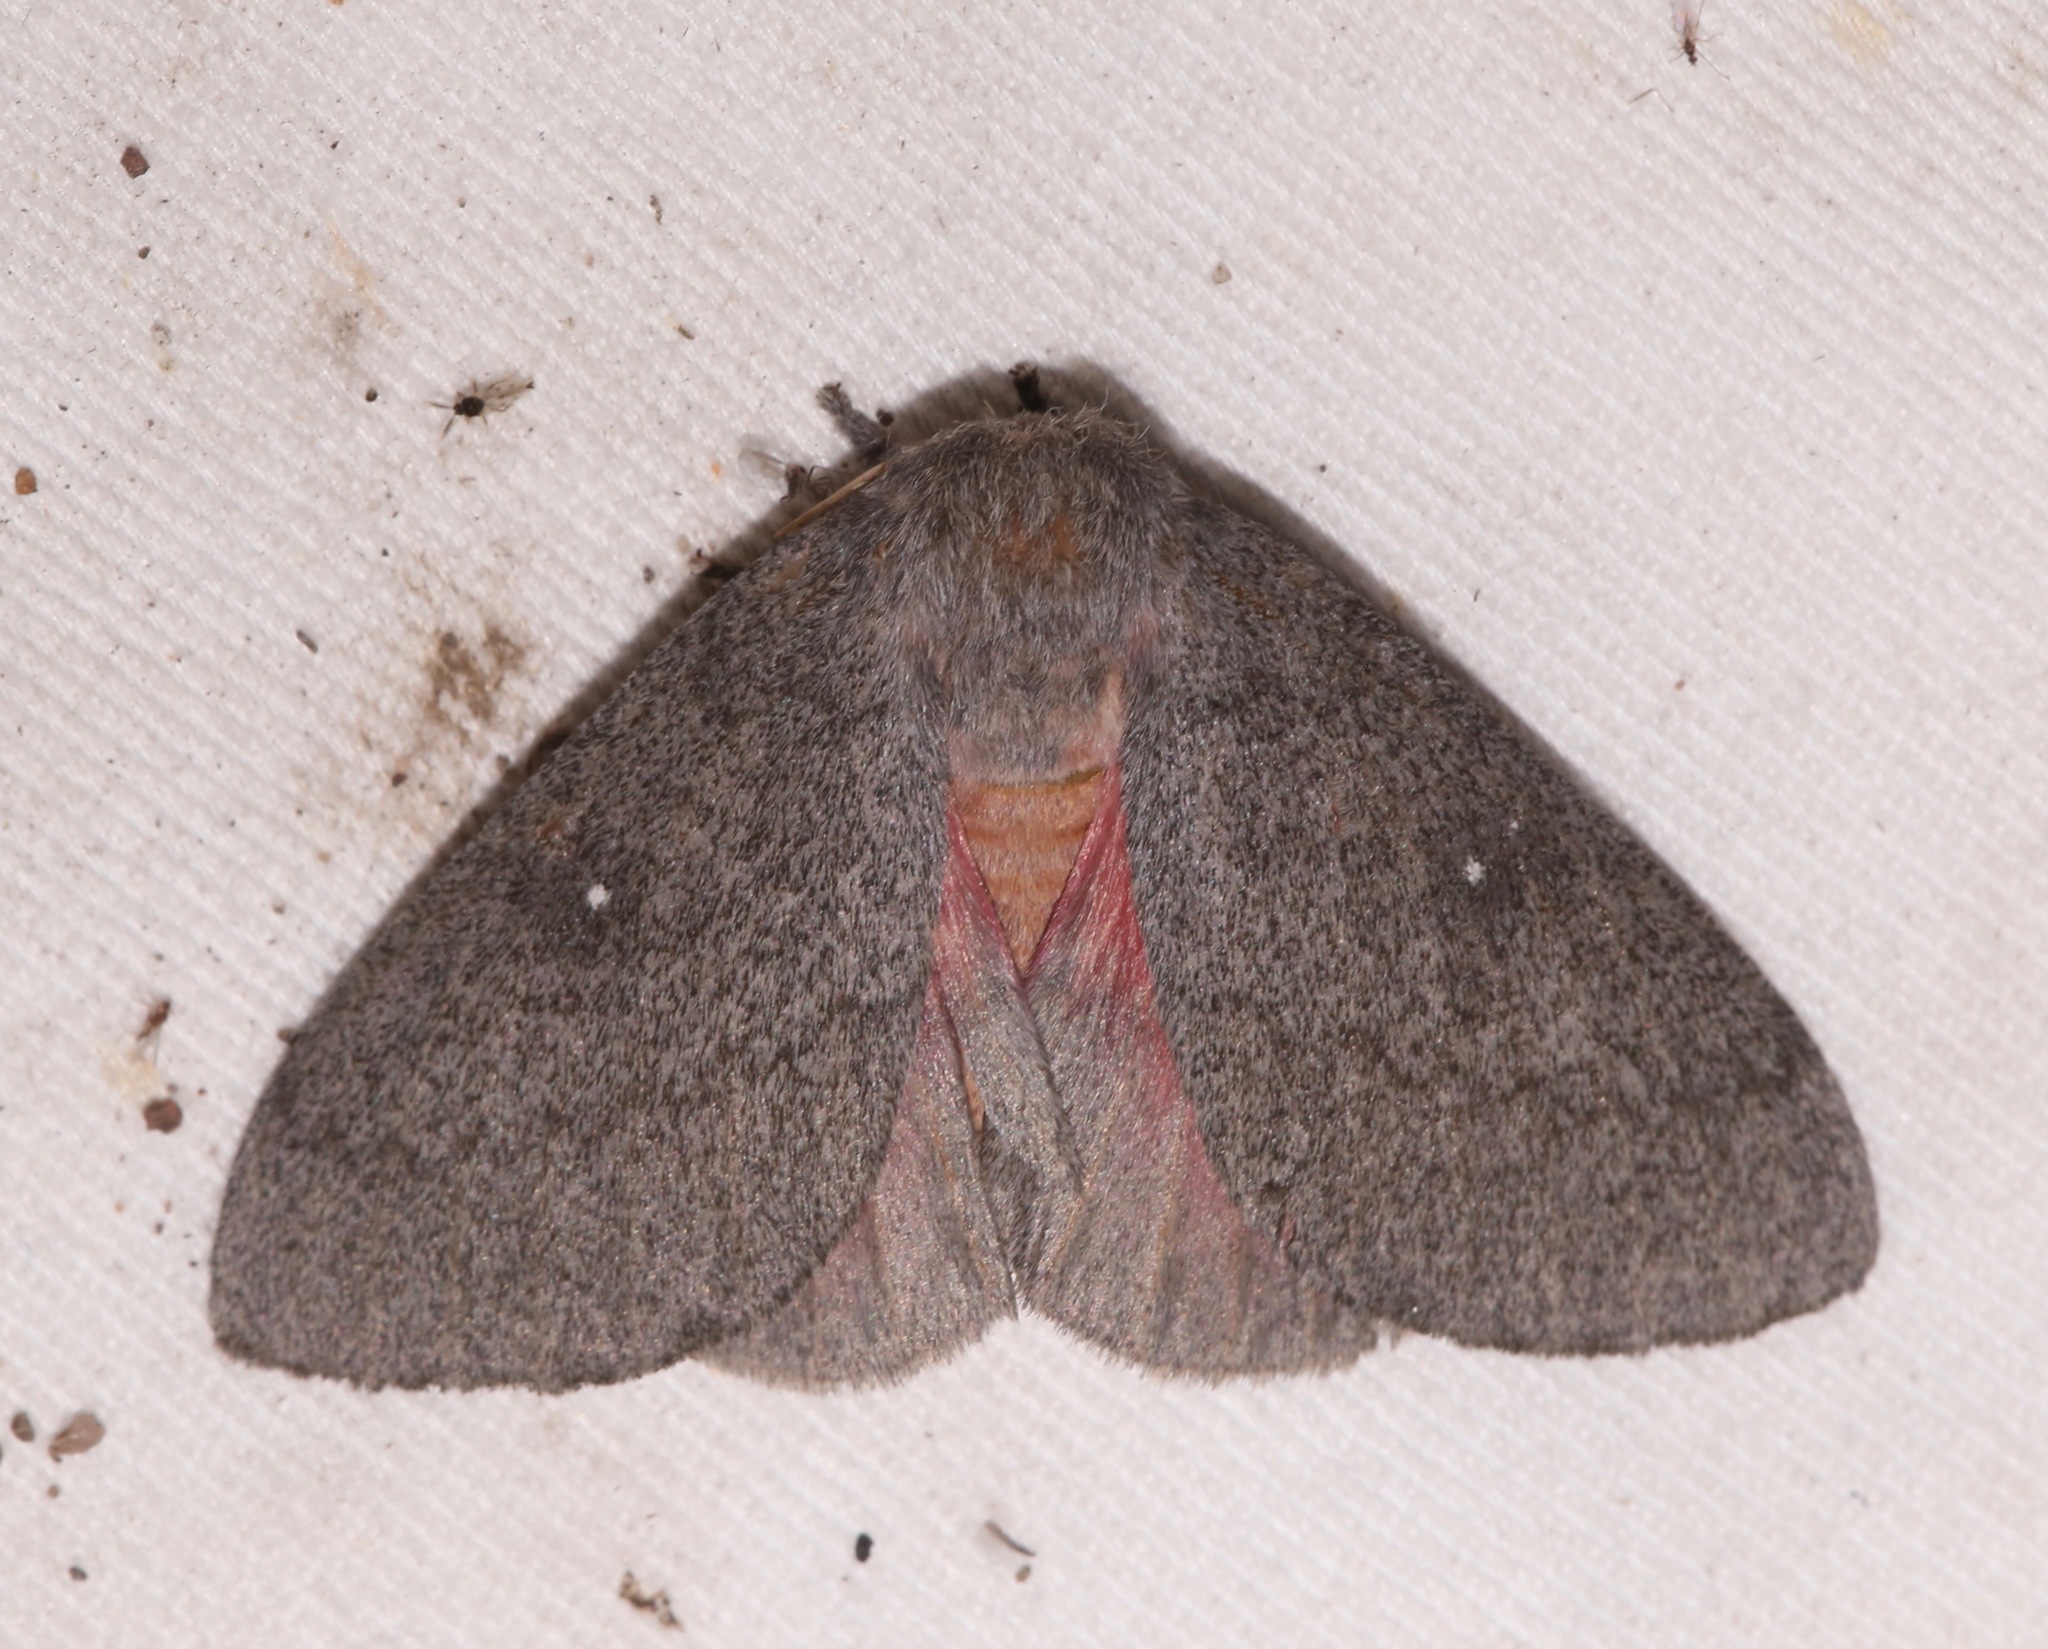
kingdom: Animalia
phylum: Arthropoda
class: Insecta
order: Lepidoptera
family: Saturniidae
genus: Syssphinx
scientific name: Syssphinx hubbardi
